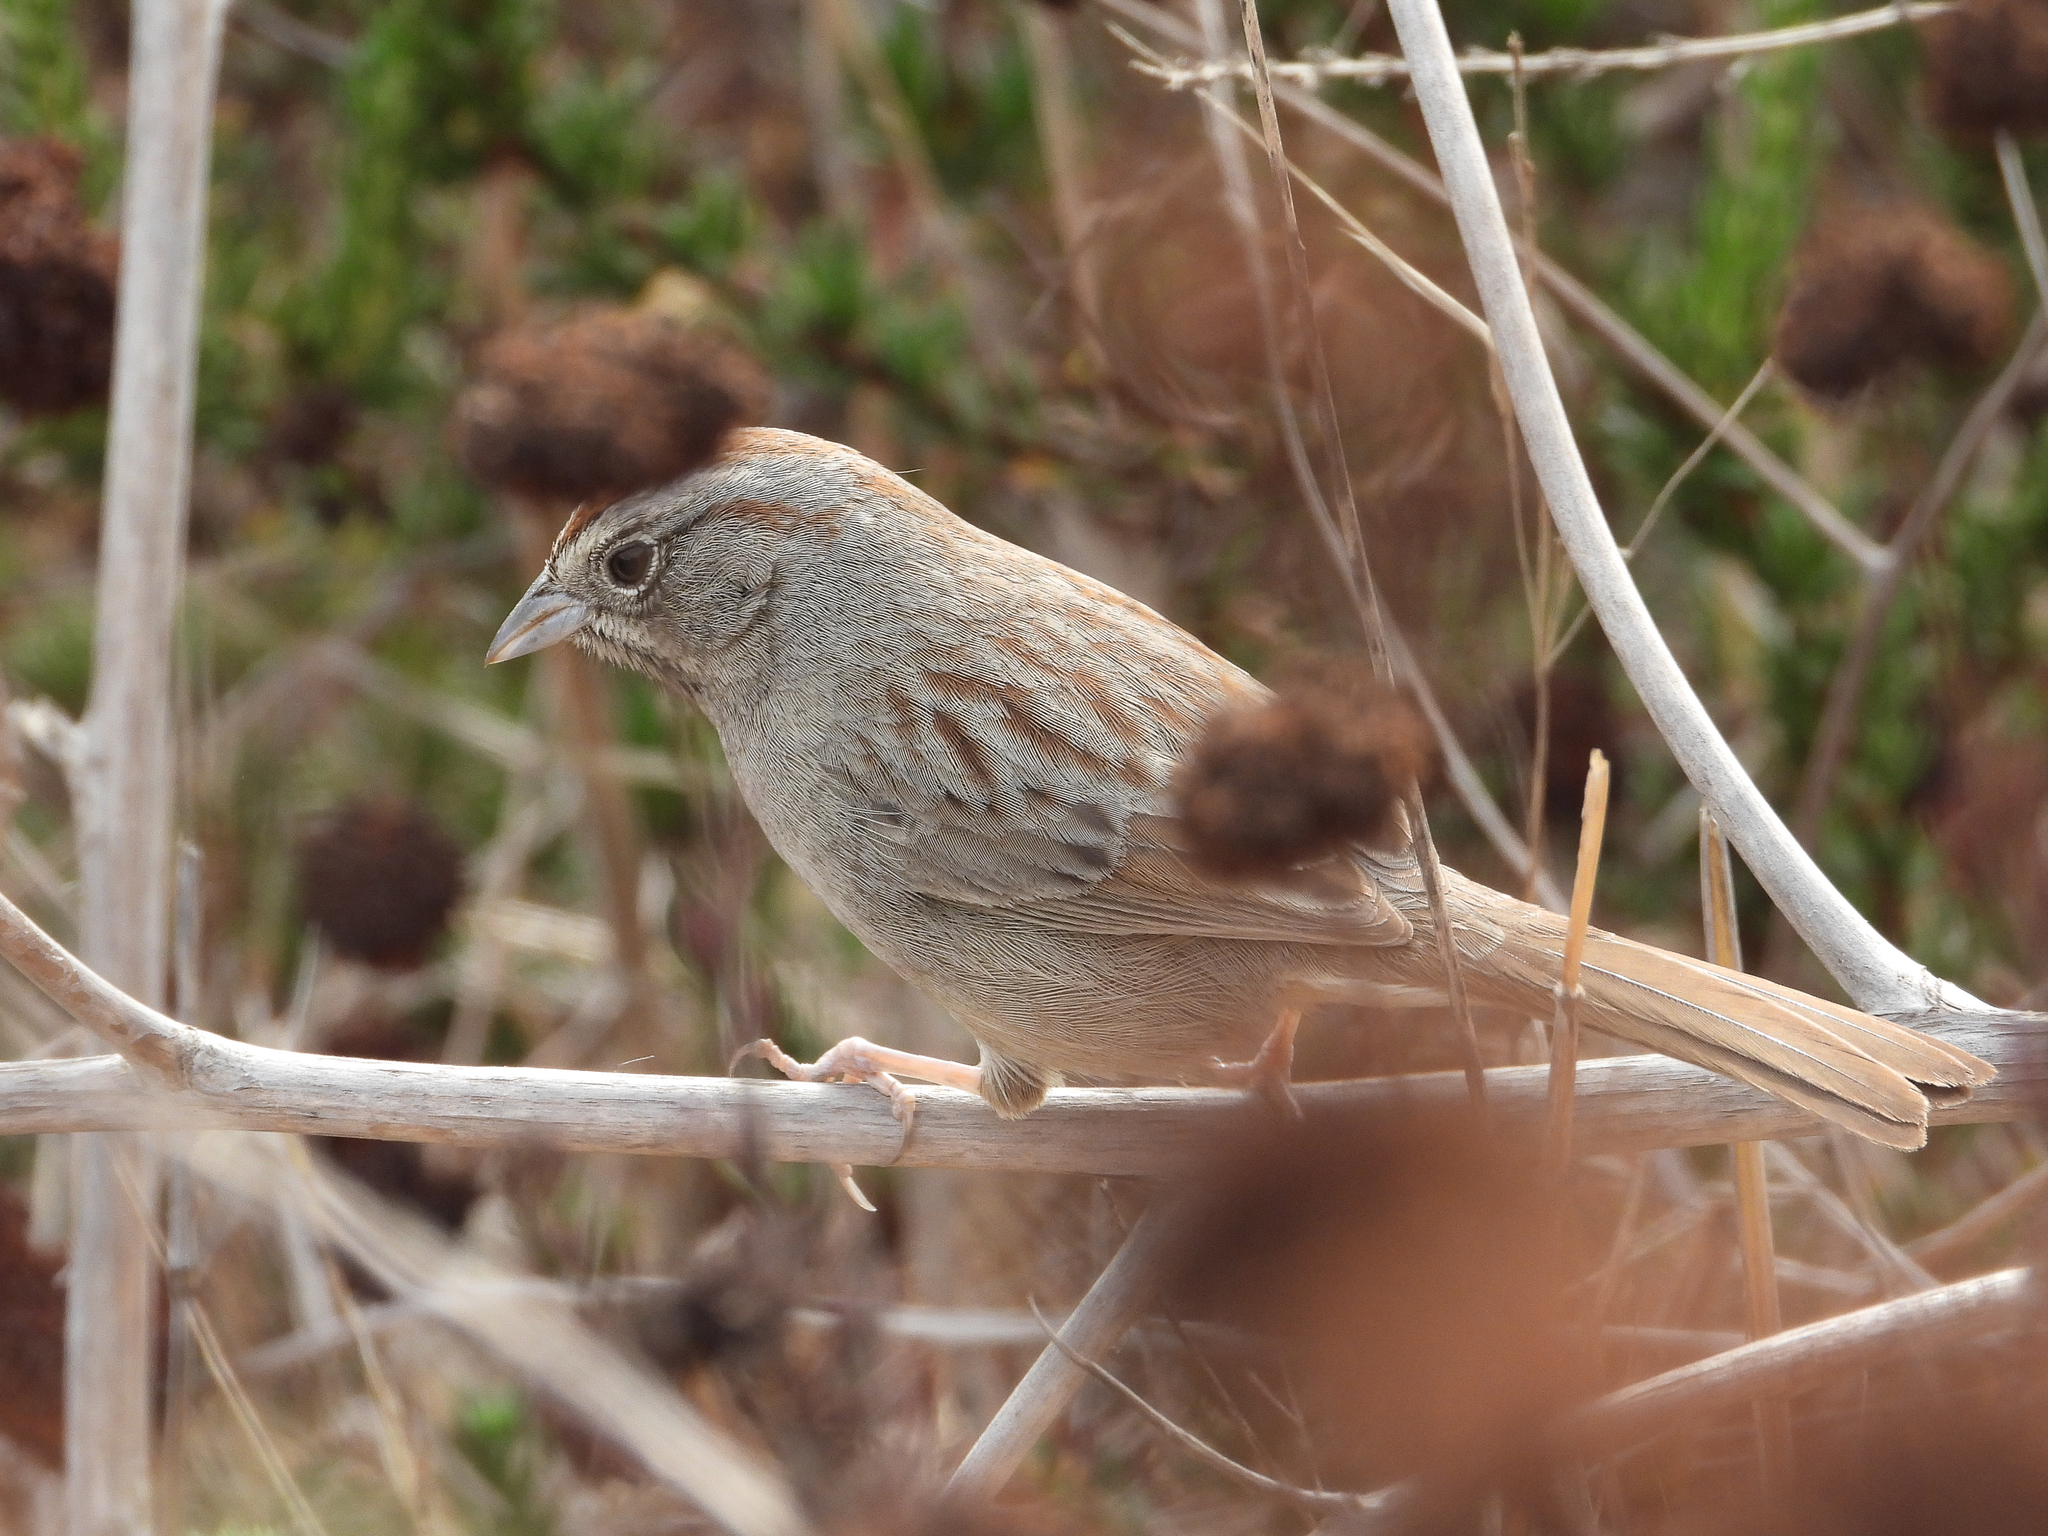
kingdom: Animalia
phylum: Chordata
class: Aves
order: Passeriformes
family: Passerellidae
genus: Aimophila
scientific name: Aimophila ruficeps
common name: Rufous-crowned sparrow
